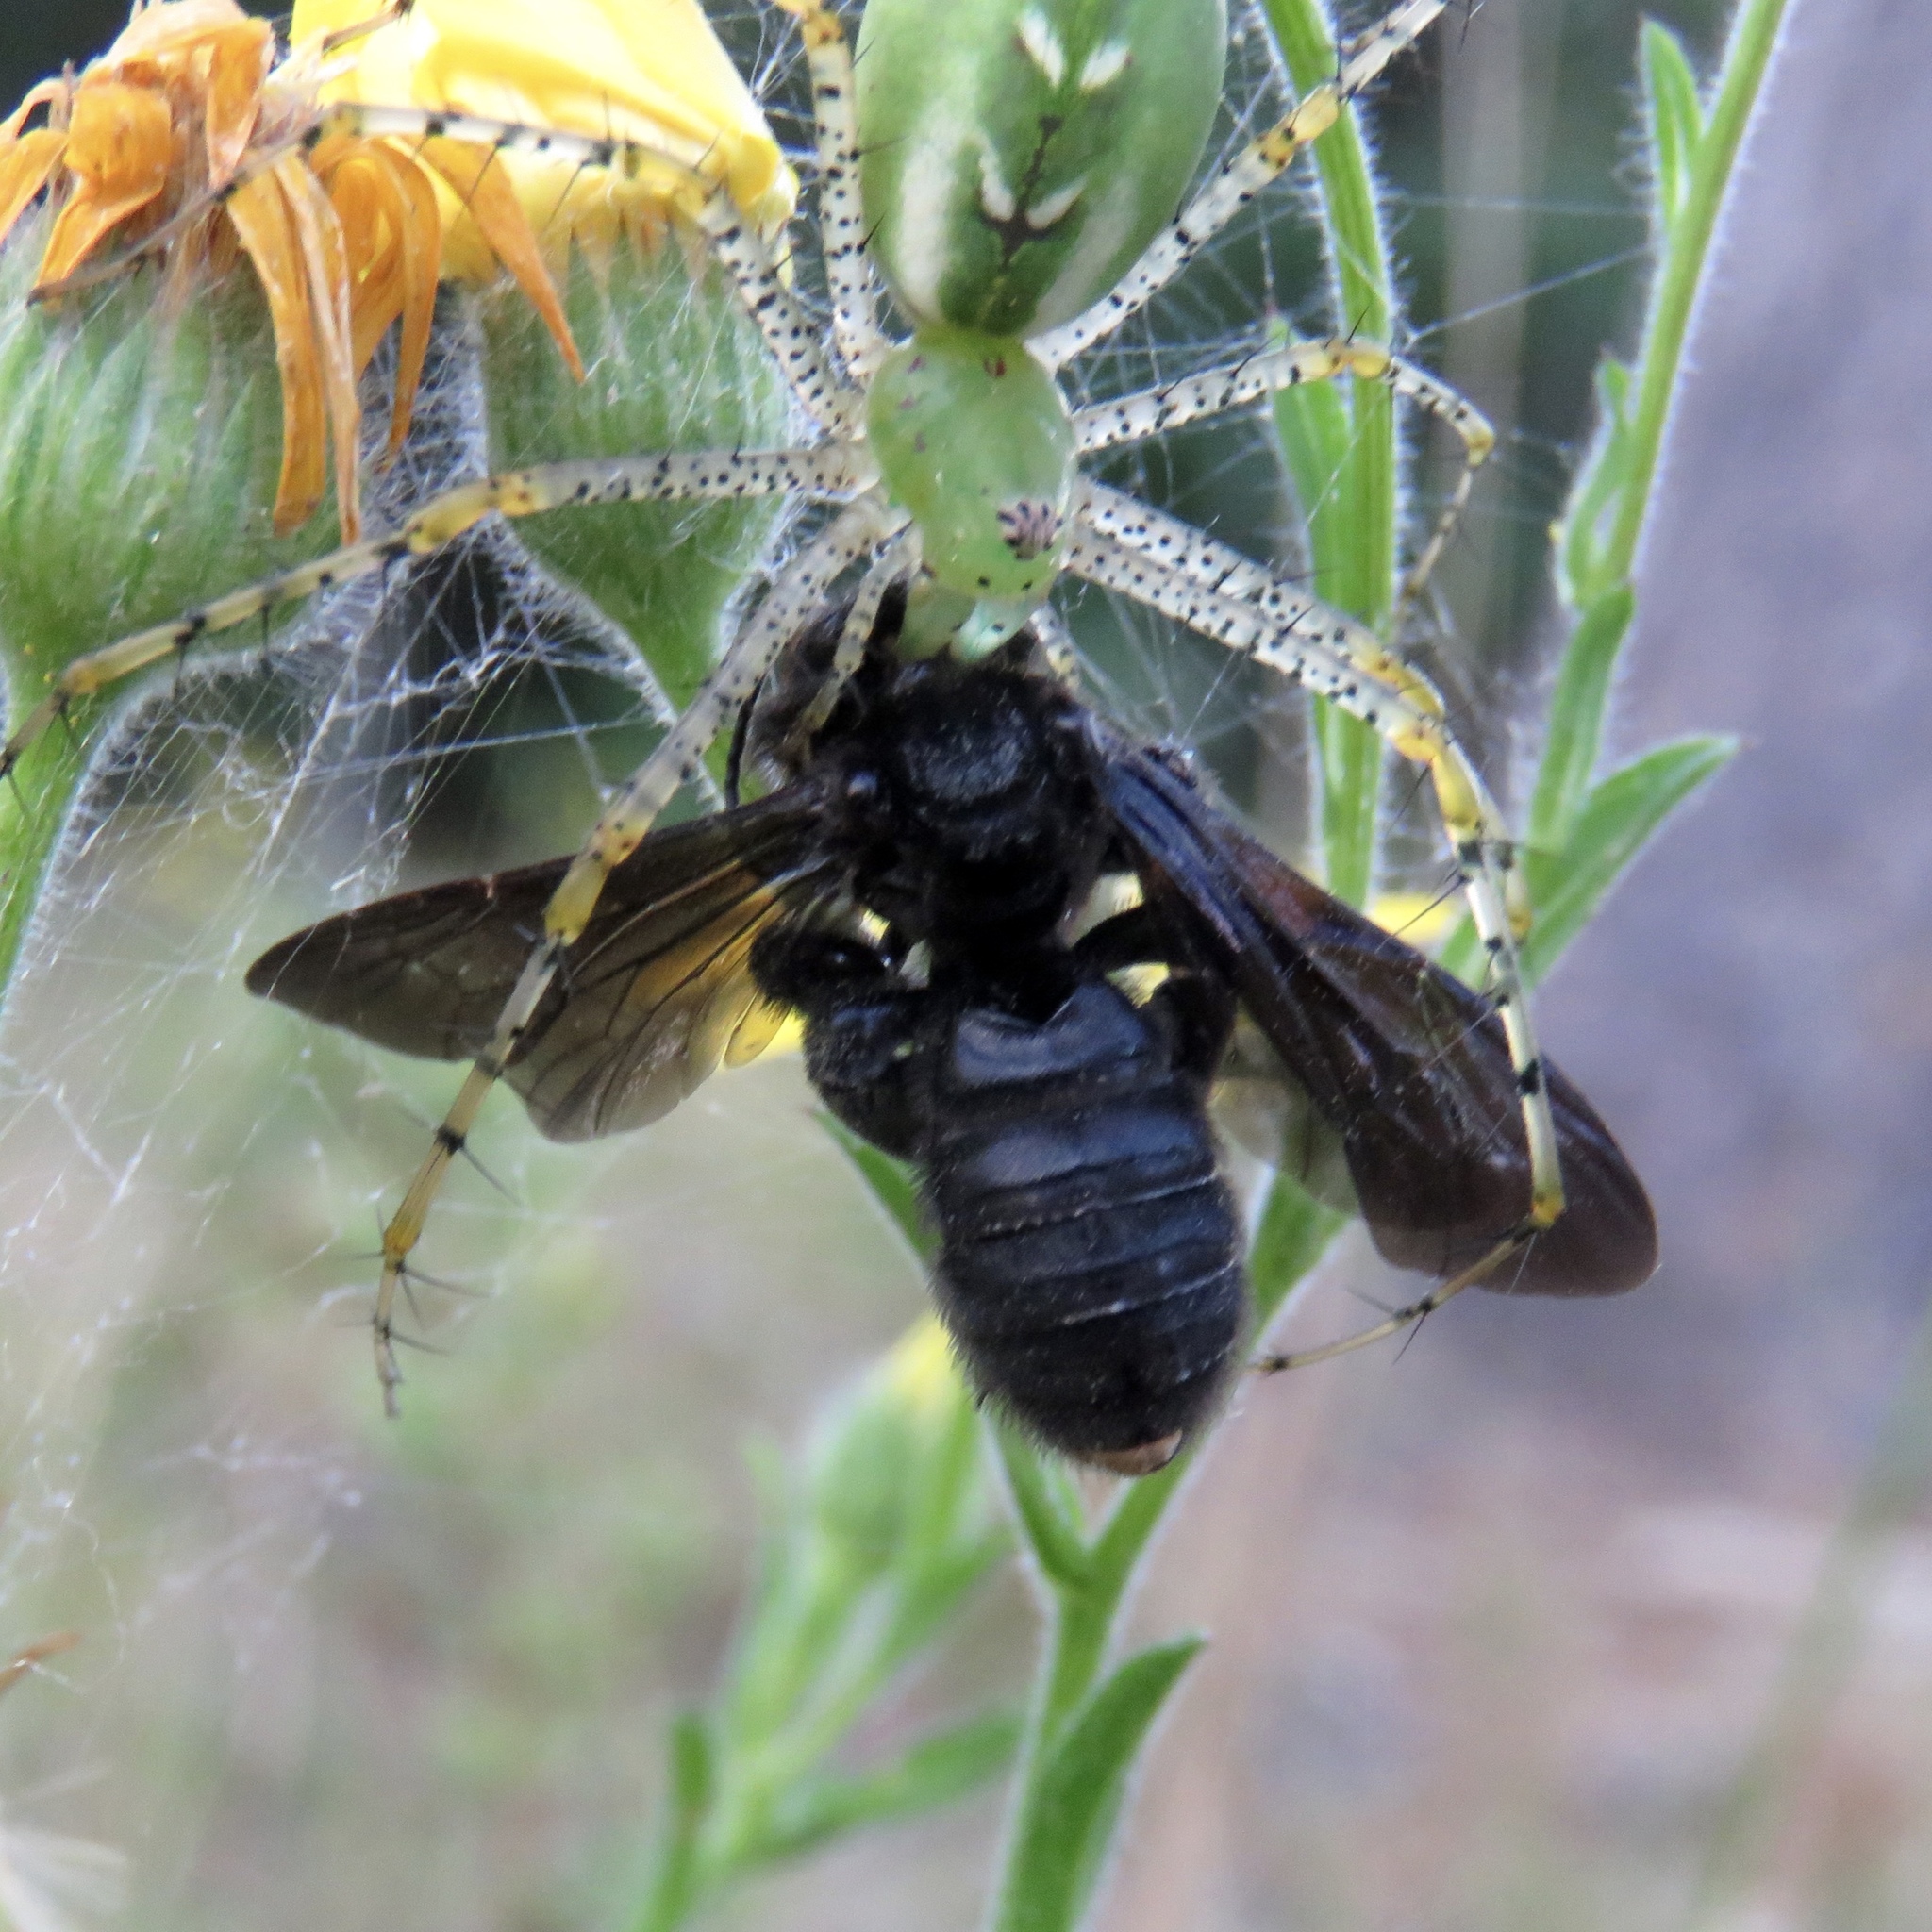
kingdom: Animalia
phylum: Arthropoda
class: Insecta
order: Hymenoptera
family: Halictidae
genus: Dieunomia
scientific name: Dieunomia heteropoda
